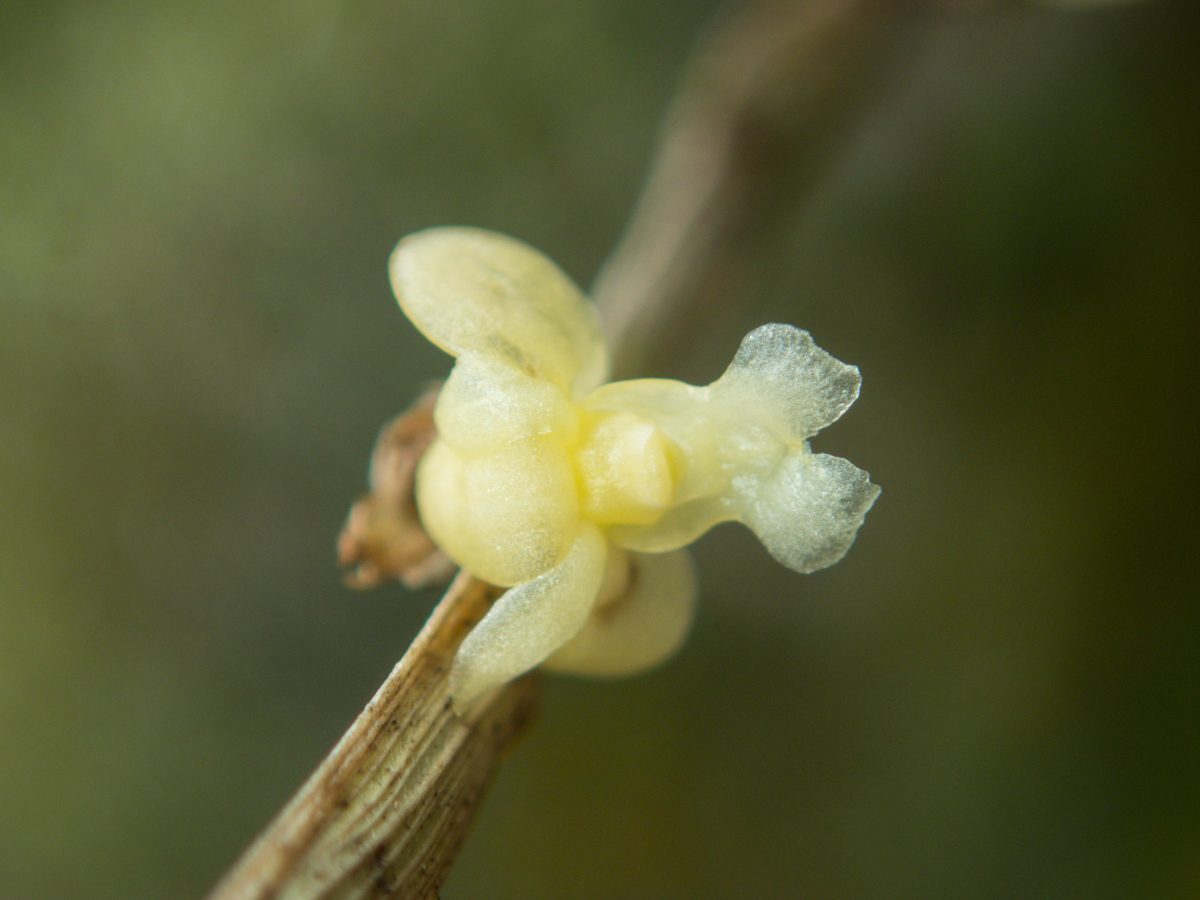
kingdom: Plantae
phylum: Tracheophyta
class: Liliopsida
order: Asparagales
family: Orchidaceae
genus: Dendrobium
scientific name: Dendrobium aloifolium
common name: Aloe-like dendrobium
